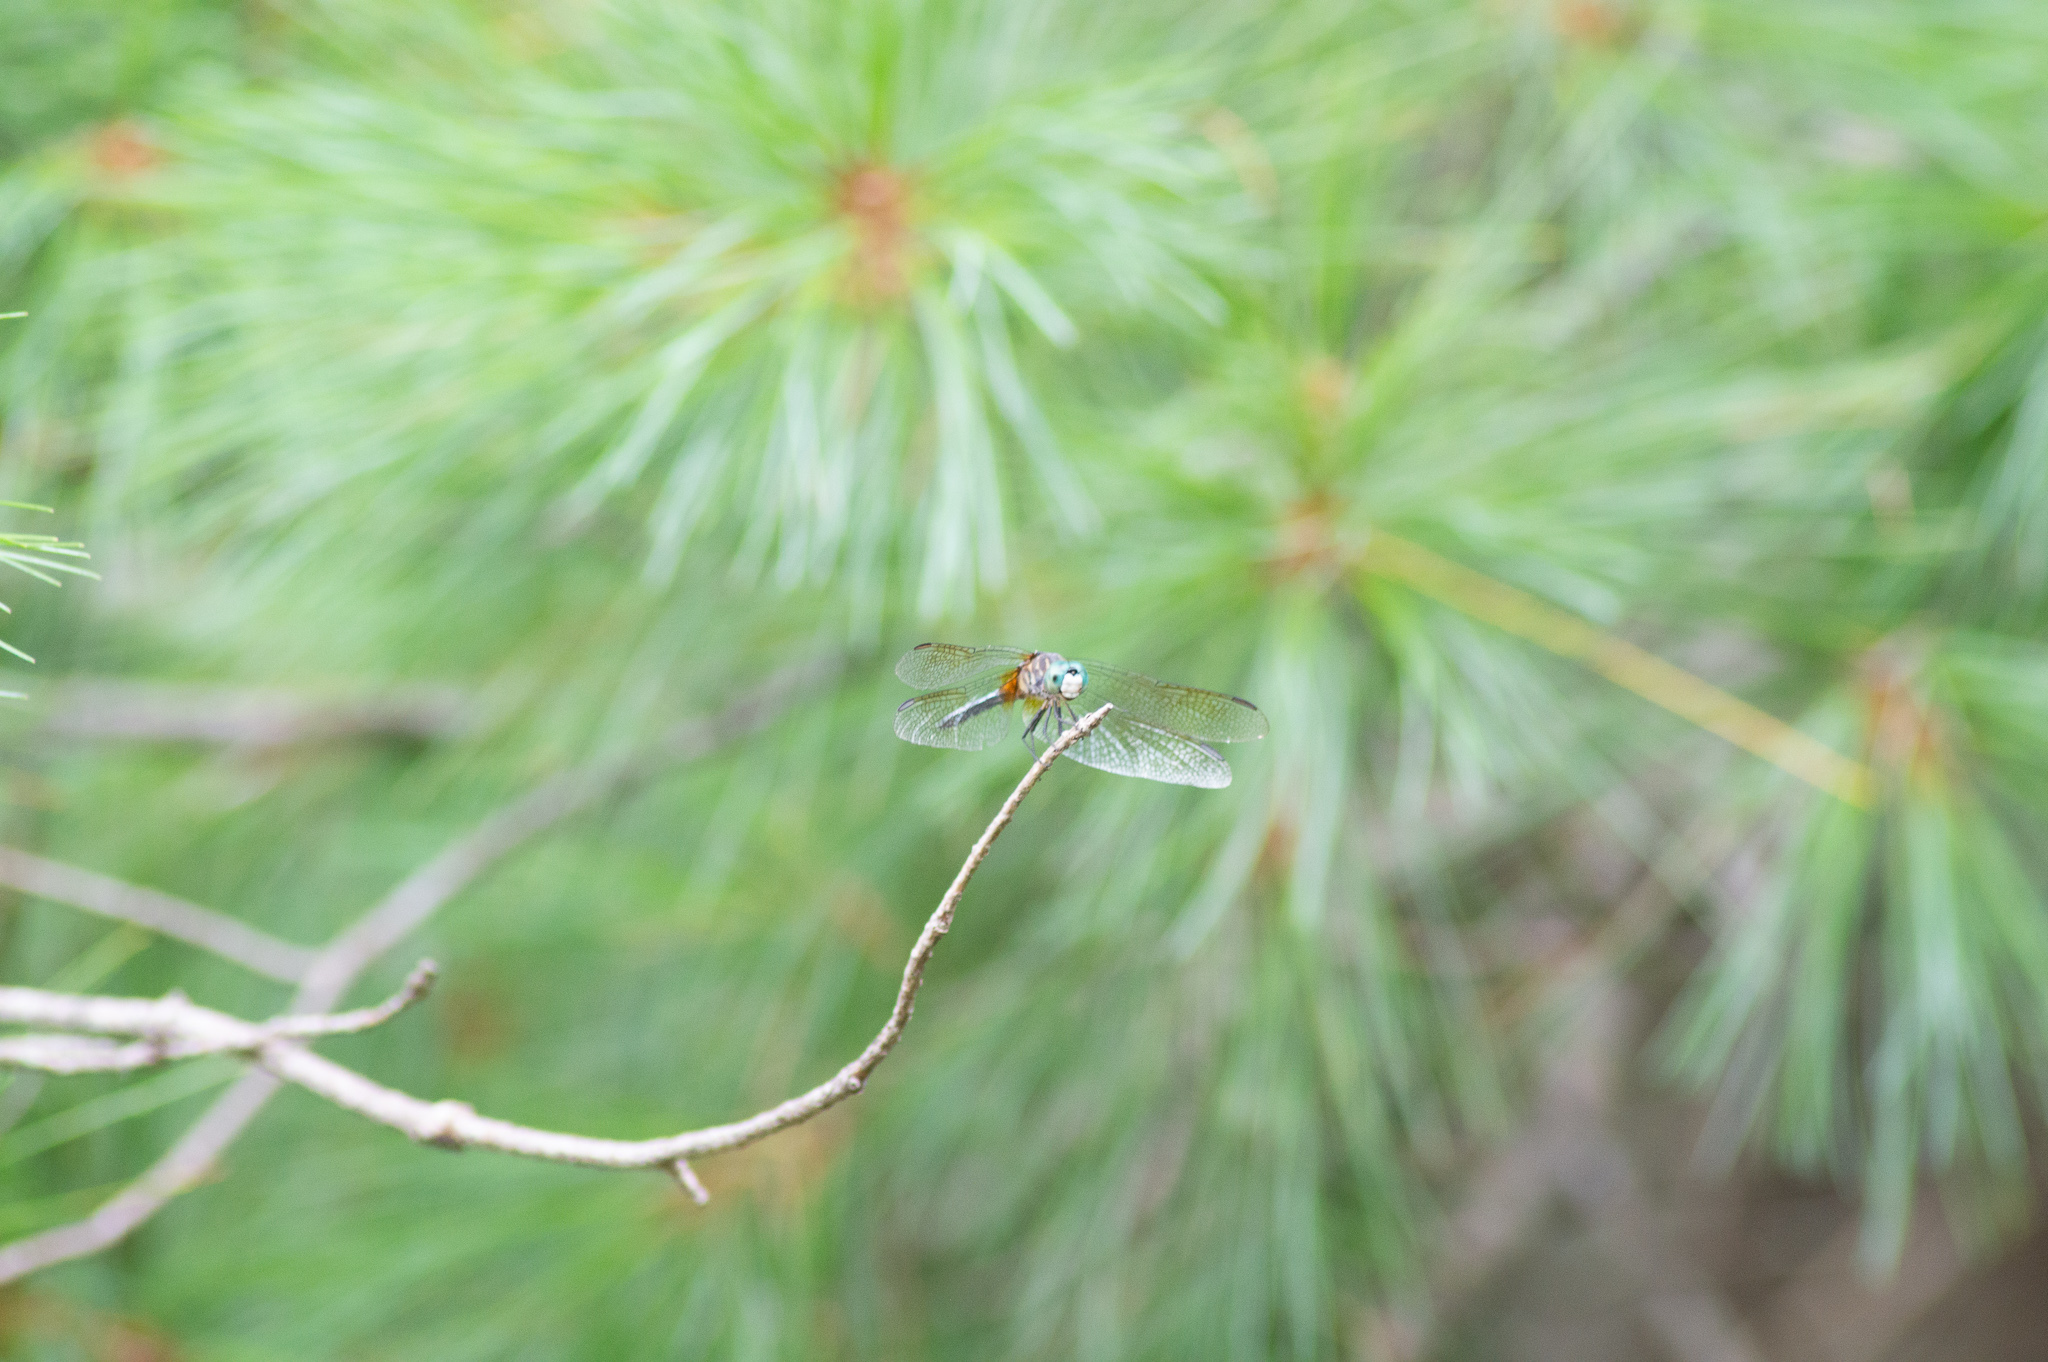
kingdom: Animalia
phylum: Arthropoda
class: Insecta
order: Odonata
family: Libellulidae
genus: Pachydiplax
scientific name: Pachydiplax longipennis
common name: Blue dasher
